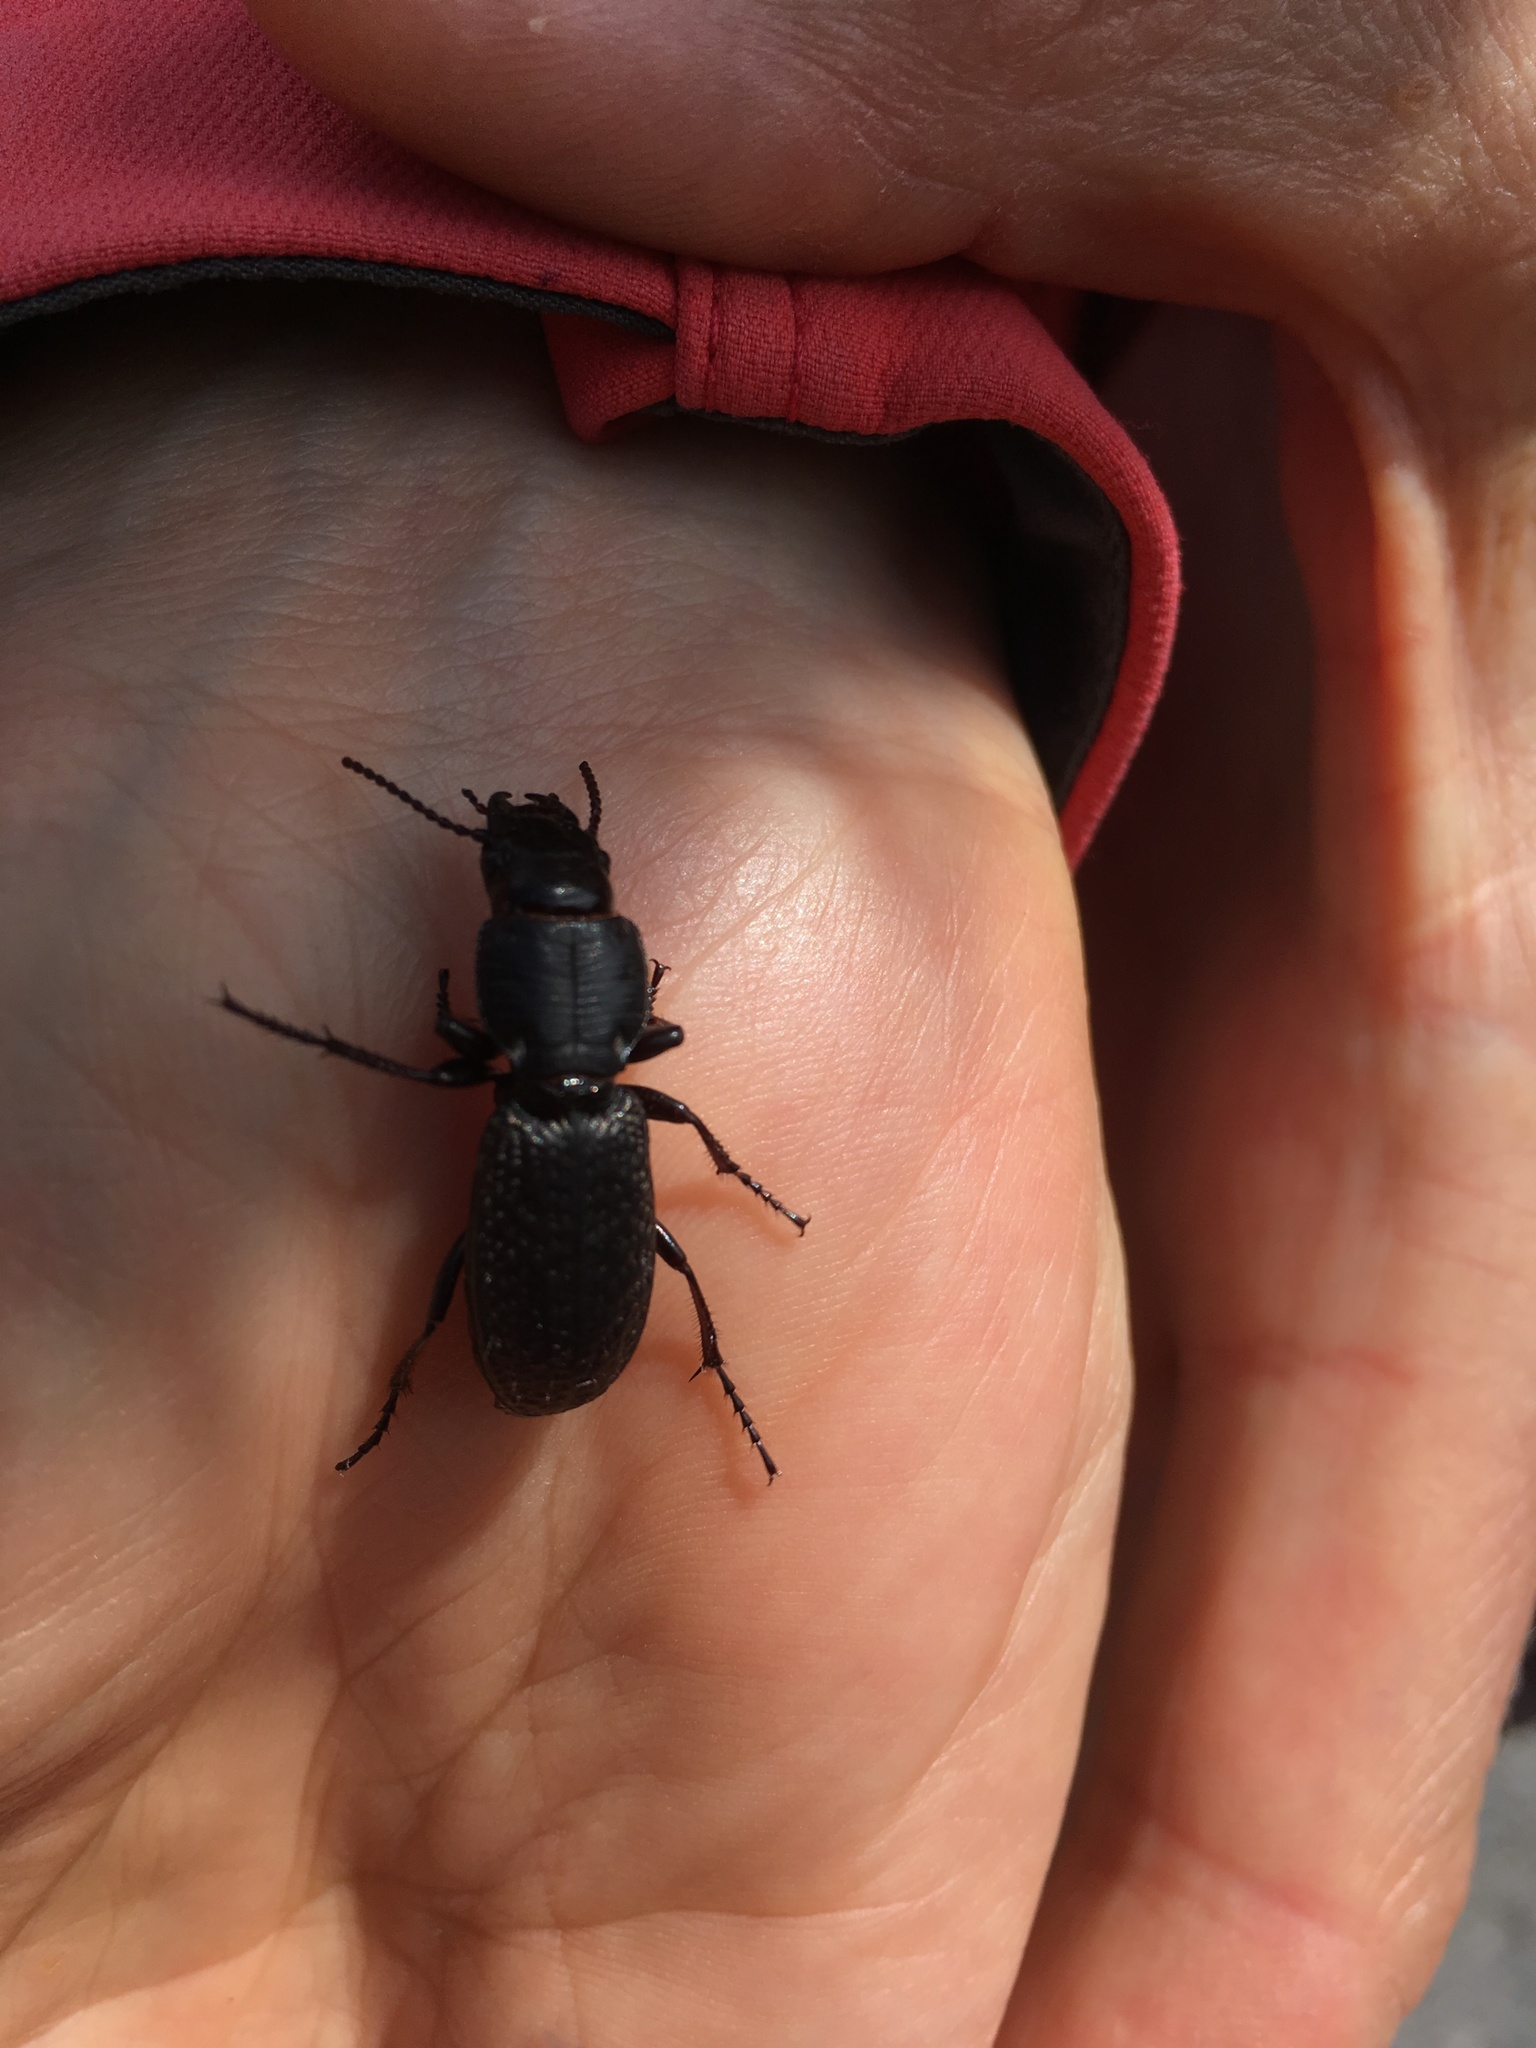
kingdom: Animalia
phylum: Arthropoda
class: Insecta
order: Coleoptera
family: Carabidae
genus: Mecodema
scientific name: Mecodema crenaticolle
